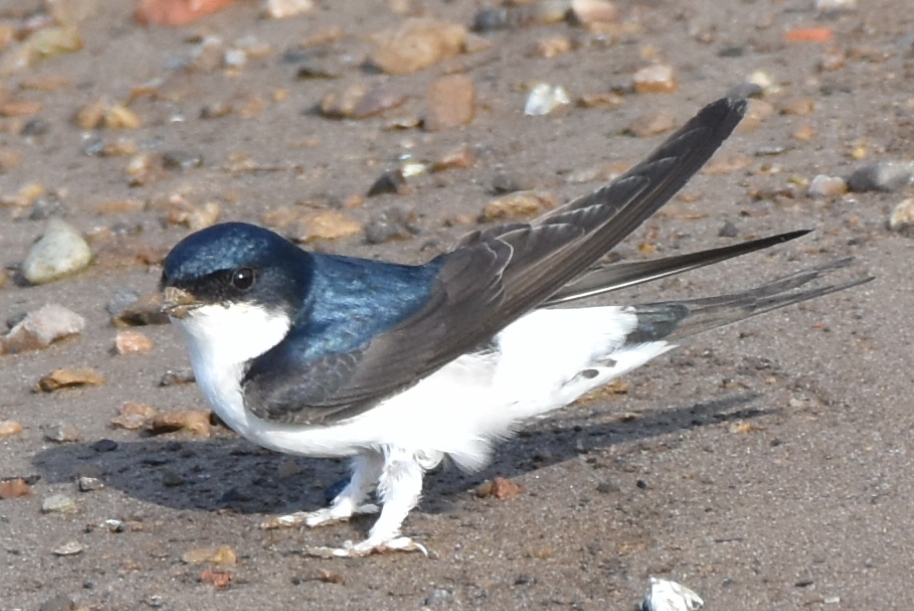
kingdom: Animalia
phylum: Chordata
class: Aves
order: Passeriformes
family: Hirundinidae
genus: Delichon
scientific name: Delichon urbicum
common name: Common house martin
